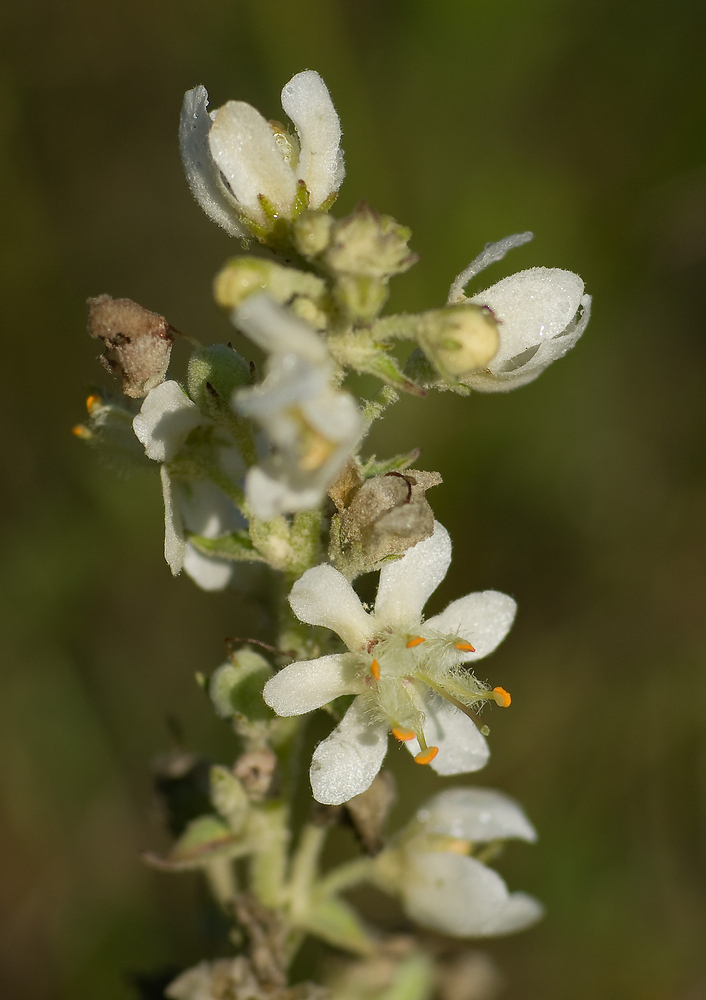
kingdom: Plantae
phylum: Tracheophyta
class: Magnoliopsida
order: Lamiales
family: Scrophulariaceae
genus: Verbascum
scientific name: Verbascum lychnitis
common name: White mullein
